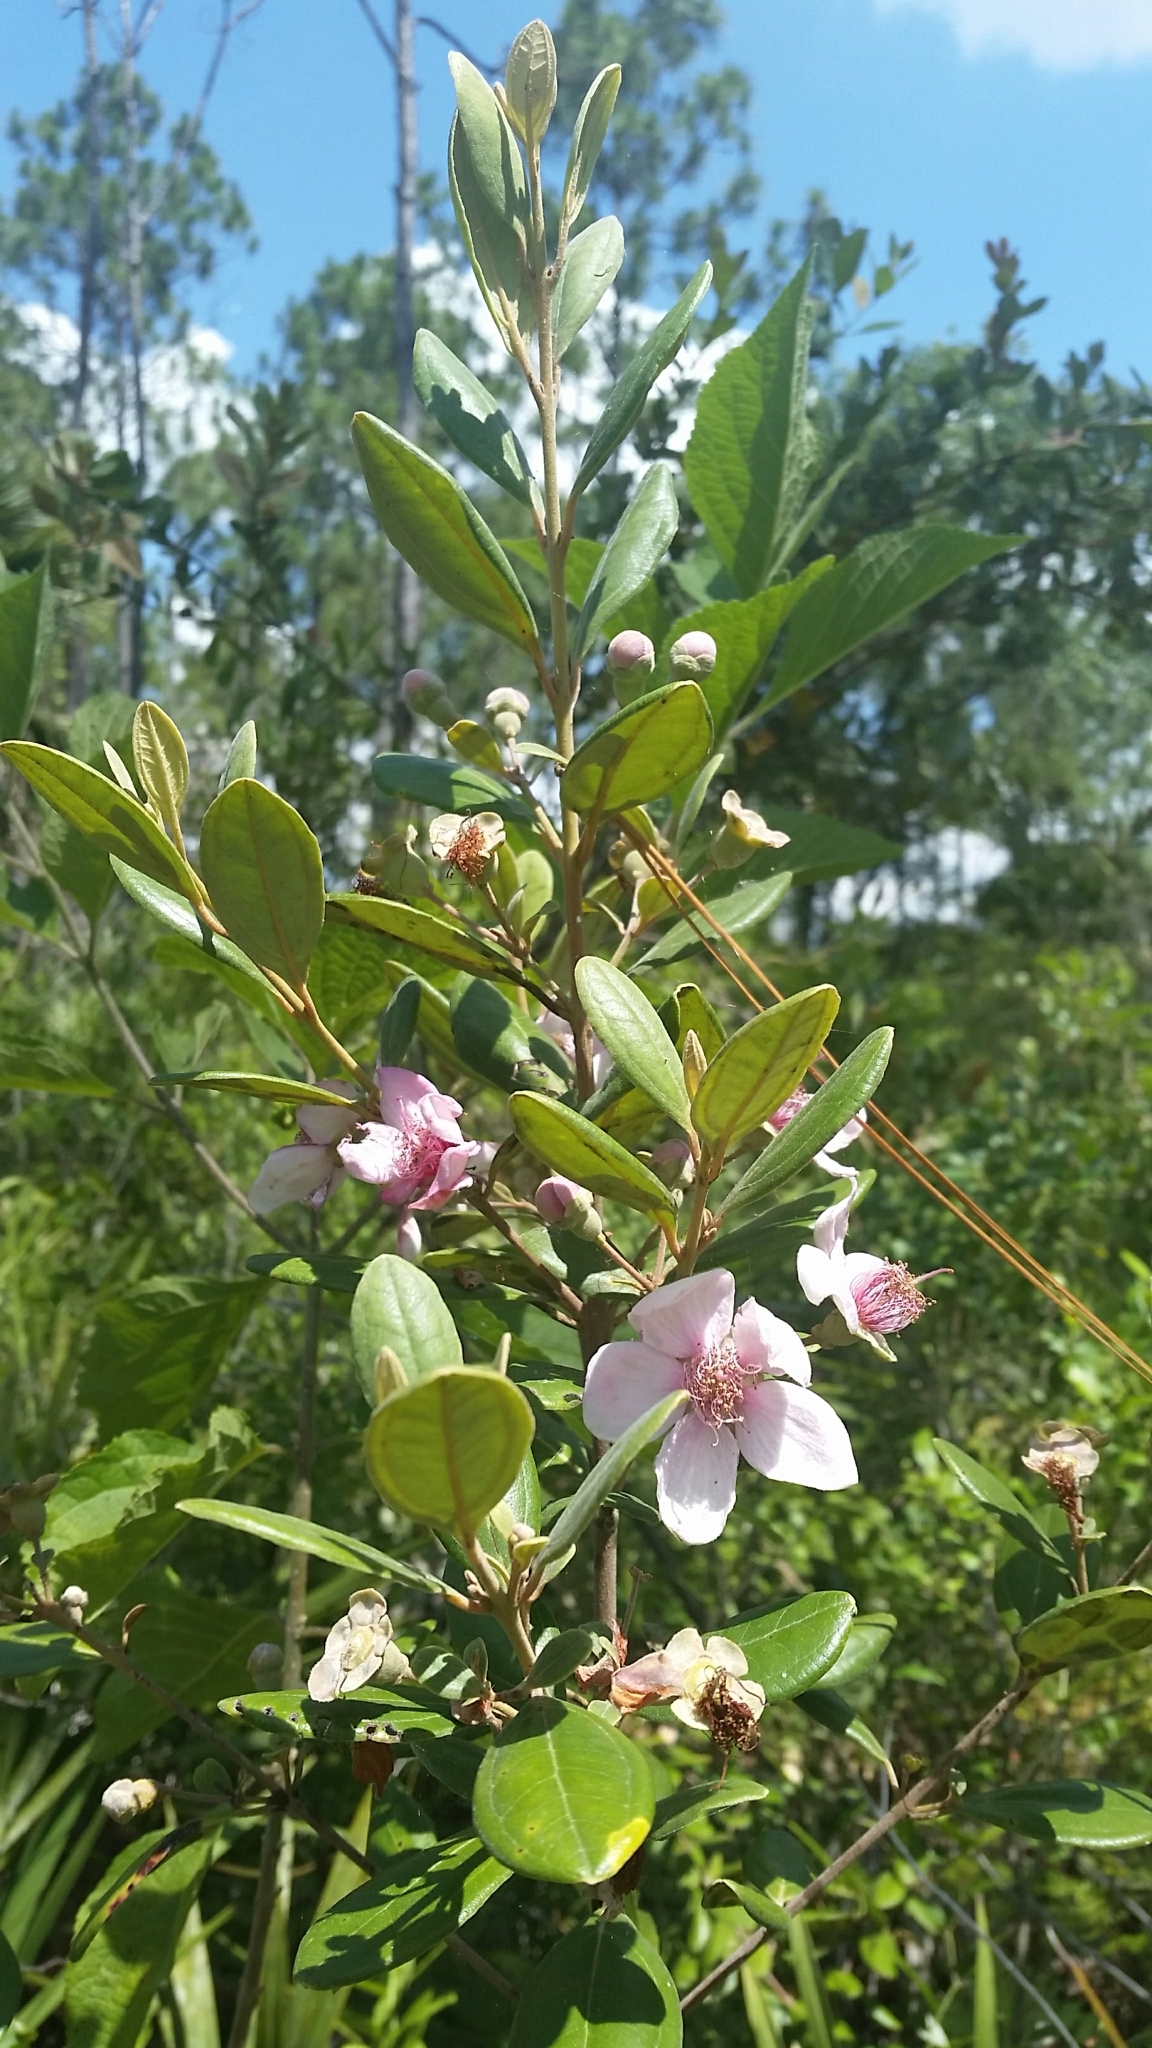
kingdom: Plantae
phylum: Tracheophyta
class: Magnoliopsida
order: Myrtales
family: Myrtaceae
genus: Rhodomyrtus
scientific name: Rhodomyrtus tomentosa
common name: Rose myrtle
